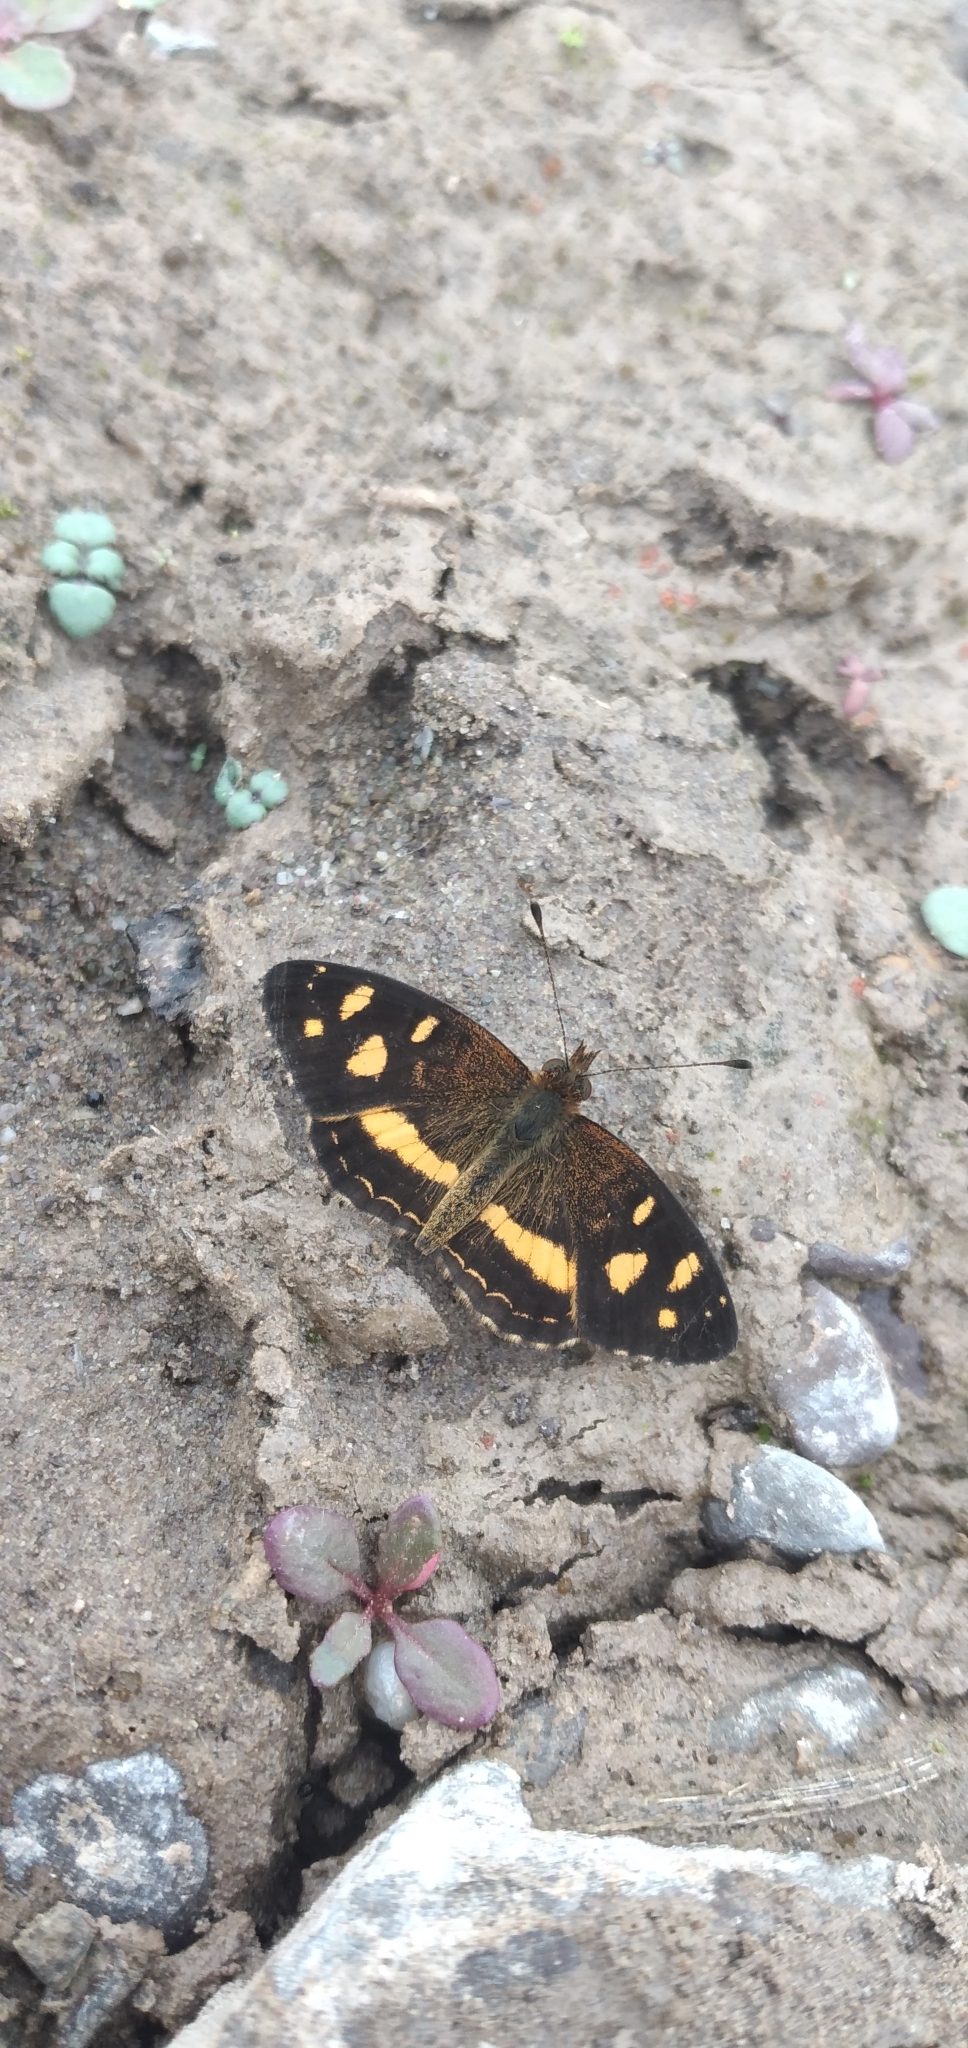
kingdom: Animalia
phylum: Arthropoda
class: Insecta
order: Lepidoptera
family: Nymphalidae
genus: Telenassa
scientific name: Telenassa berenice
